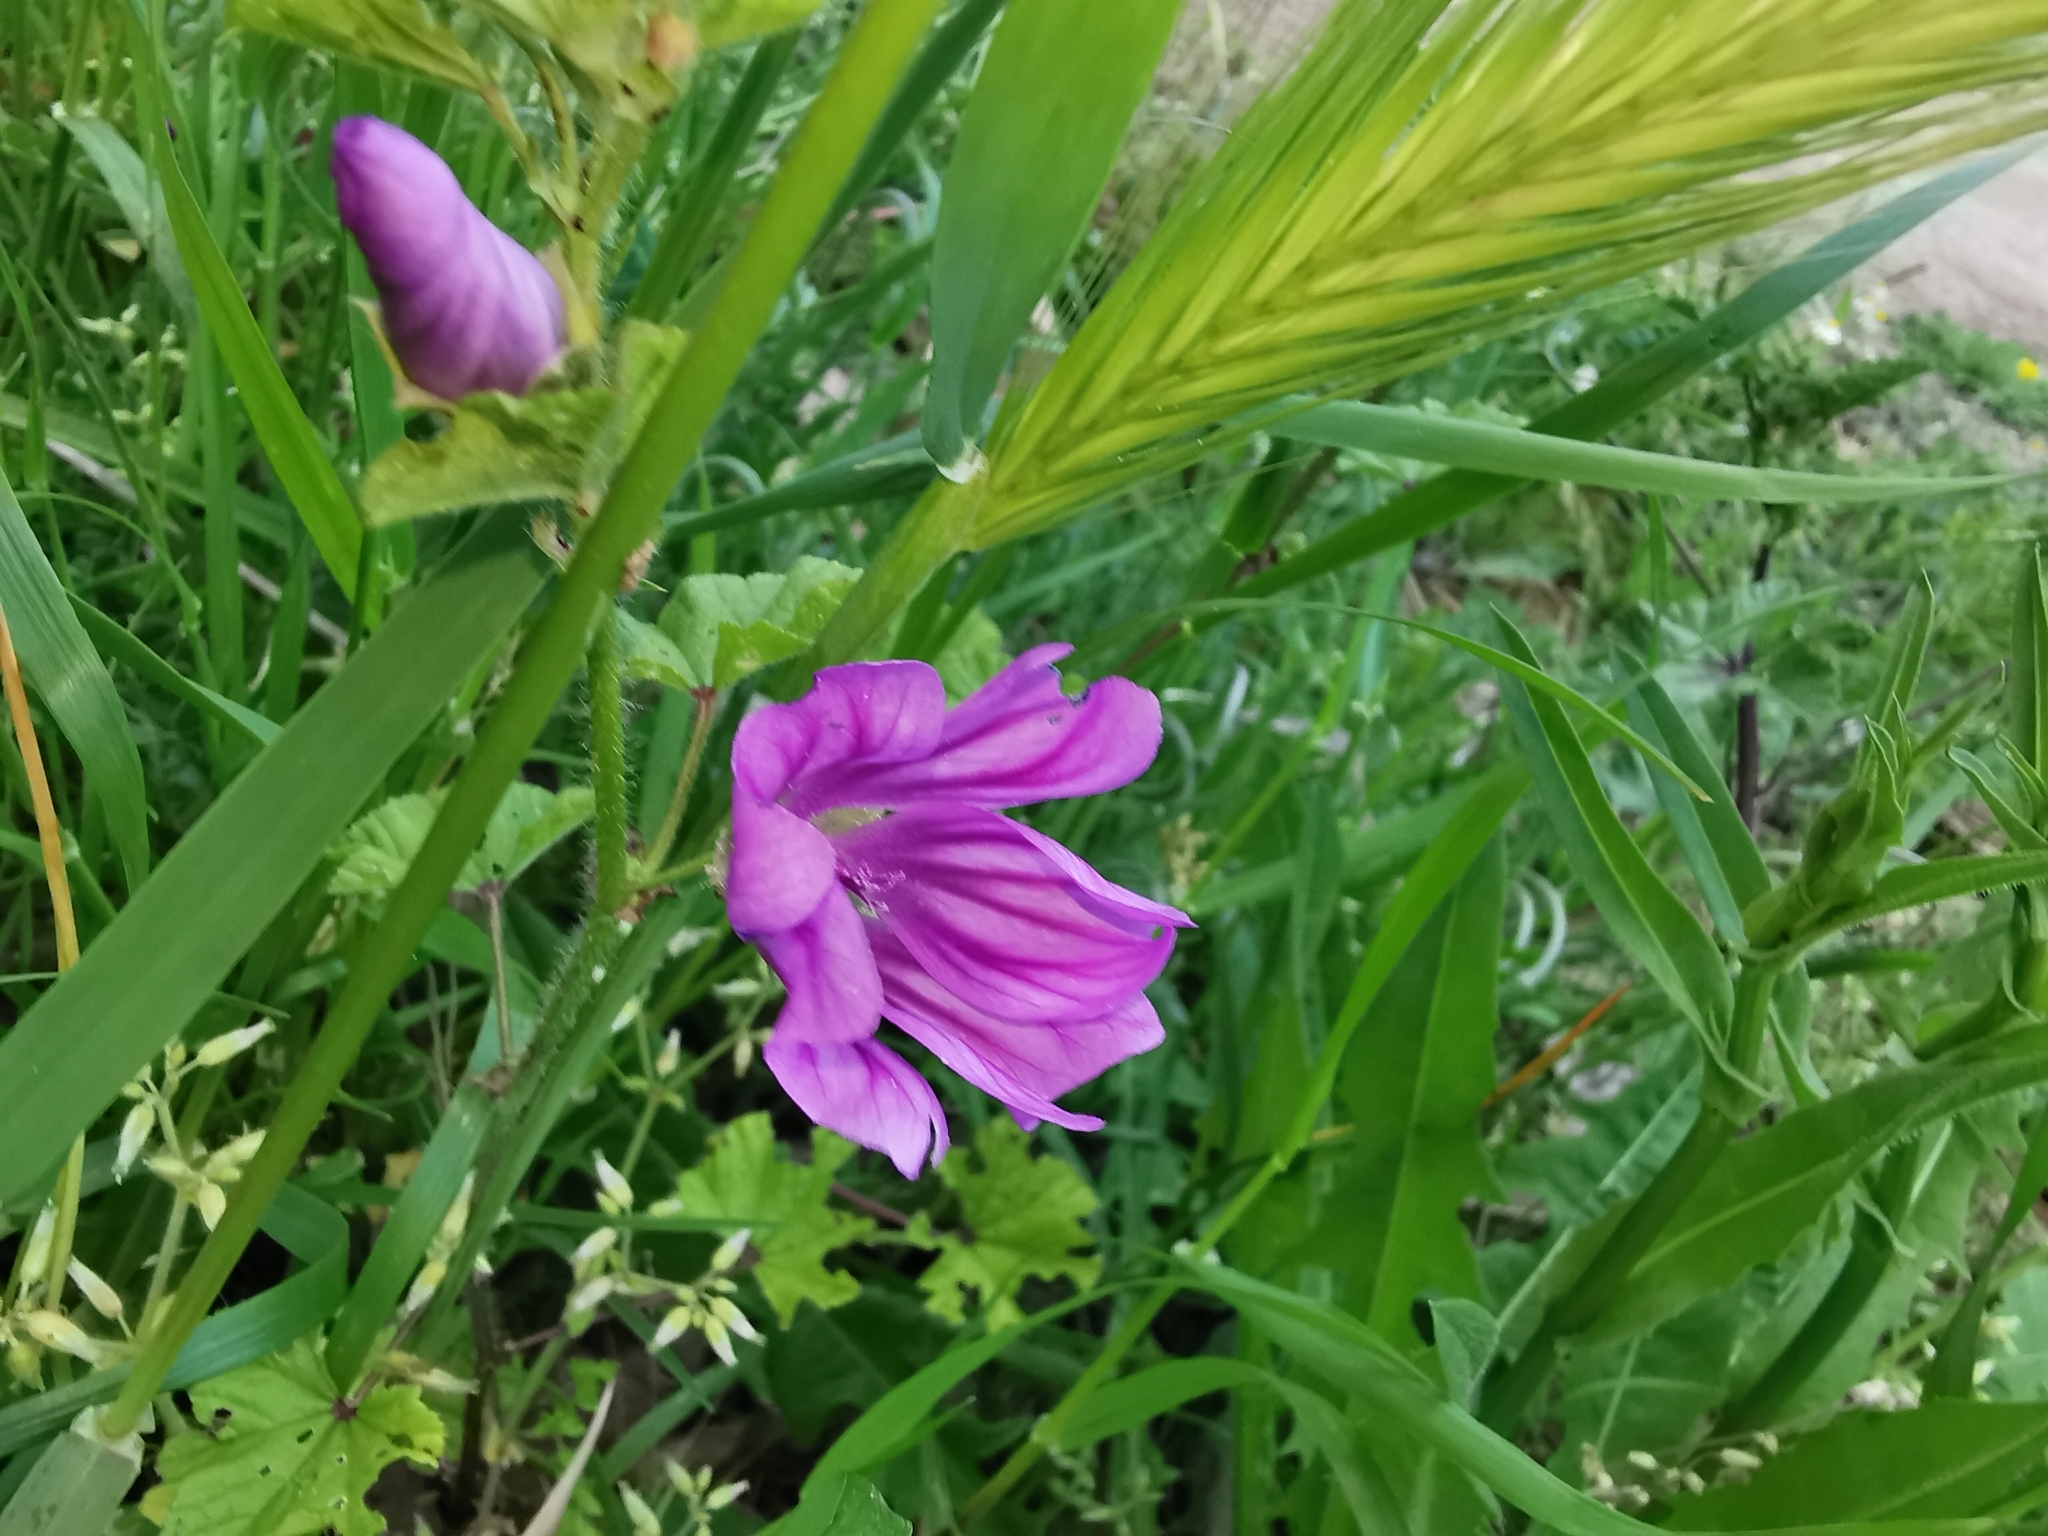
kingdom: Plantae
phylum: Tracheophyta
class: Magnoliopsida
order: Malvales
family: Malvaceae
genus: Malva
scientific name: Malva sylvestris
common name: Common mallow
